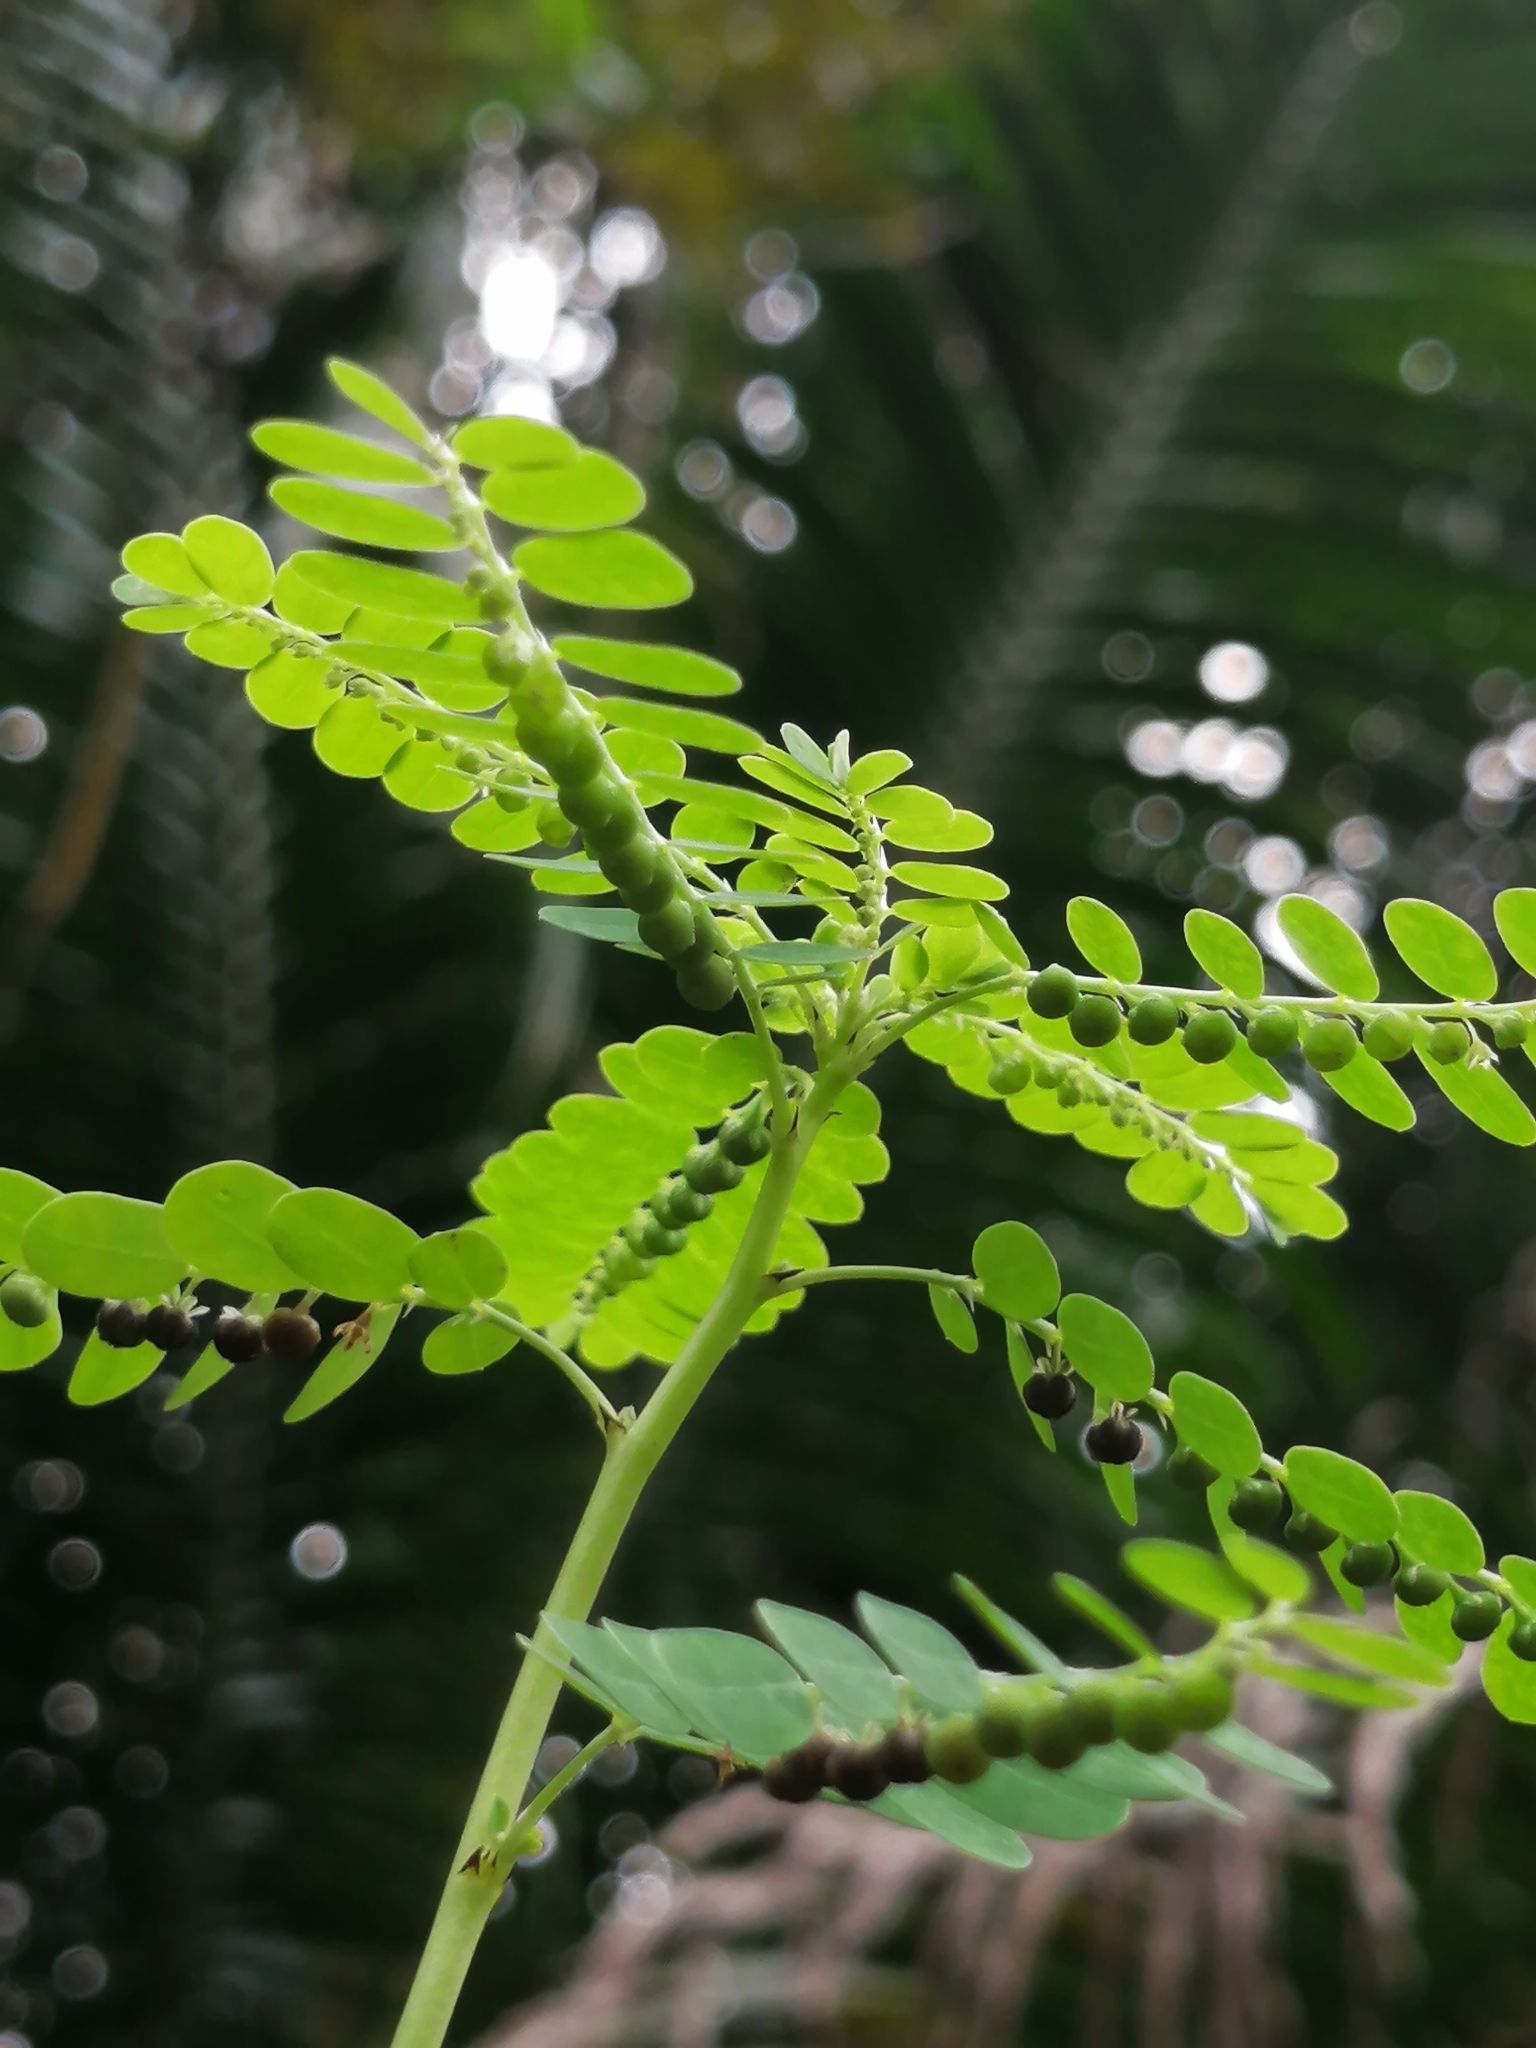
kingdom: Plantae
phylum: Tracheophyta
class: Magnoliopsida
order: Malpighiales
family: Phyllanthaceae
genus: Phyllanthus
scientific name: Phyllanthus amarus
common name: Carry me seed
